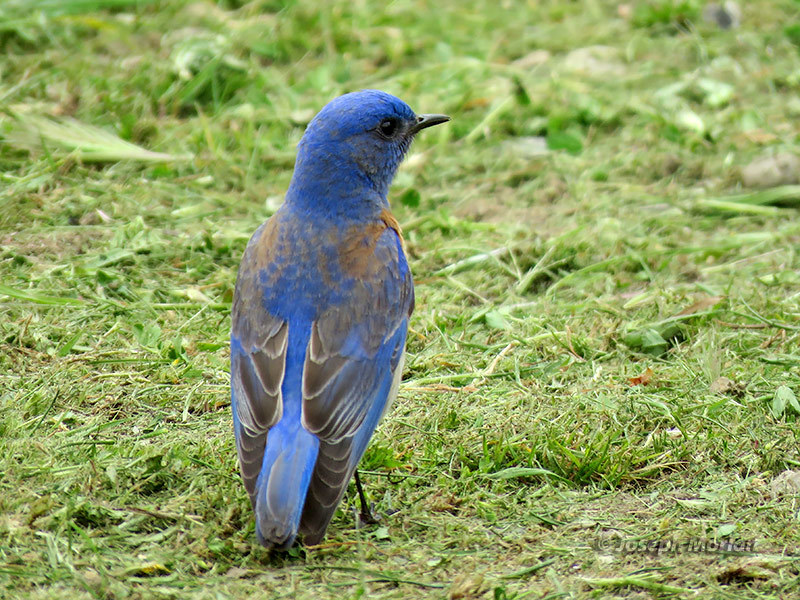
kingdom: Animalia
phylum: Chordata
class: Aves
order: Passeriformes
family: Turdidae
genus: Sialia
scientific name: Sialia mexicana
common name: Western bluebird
